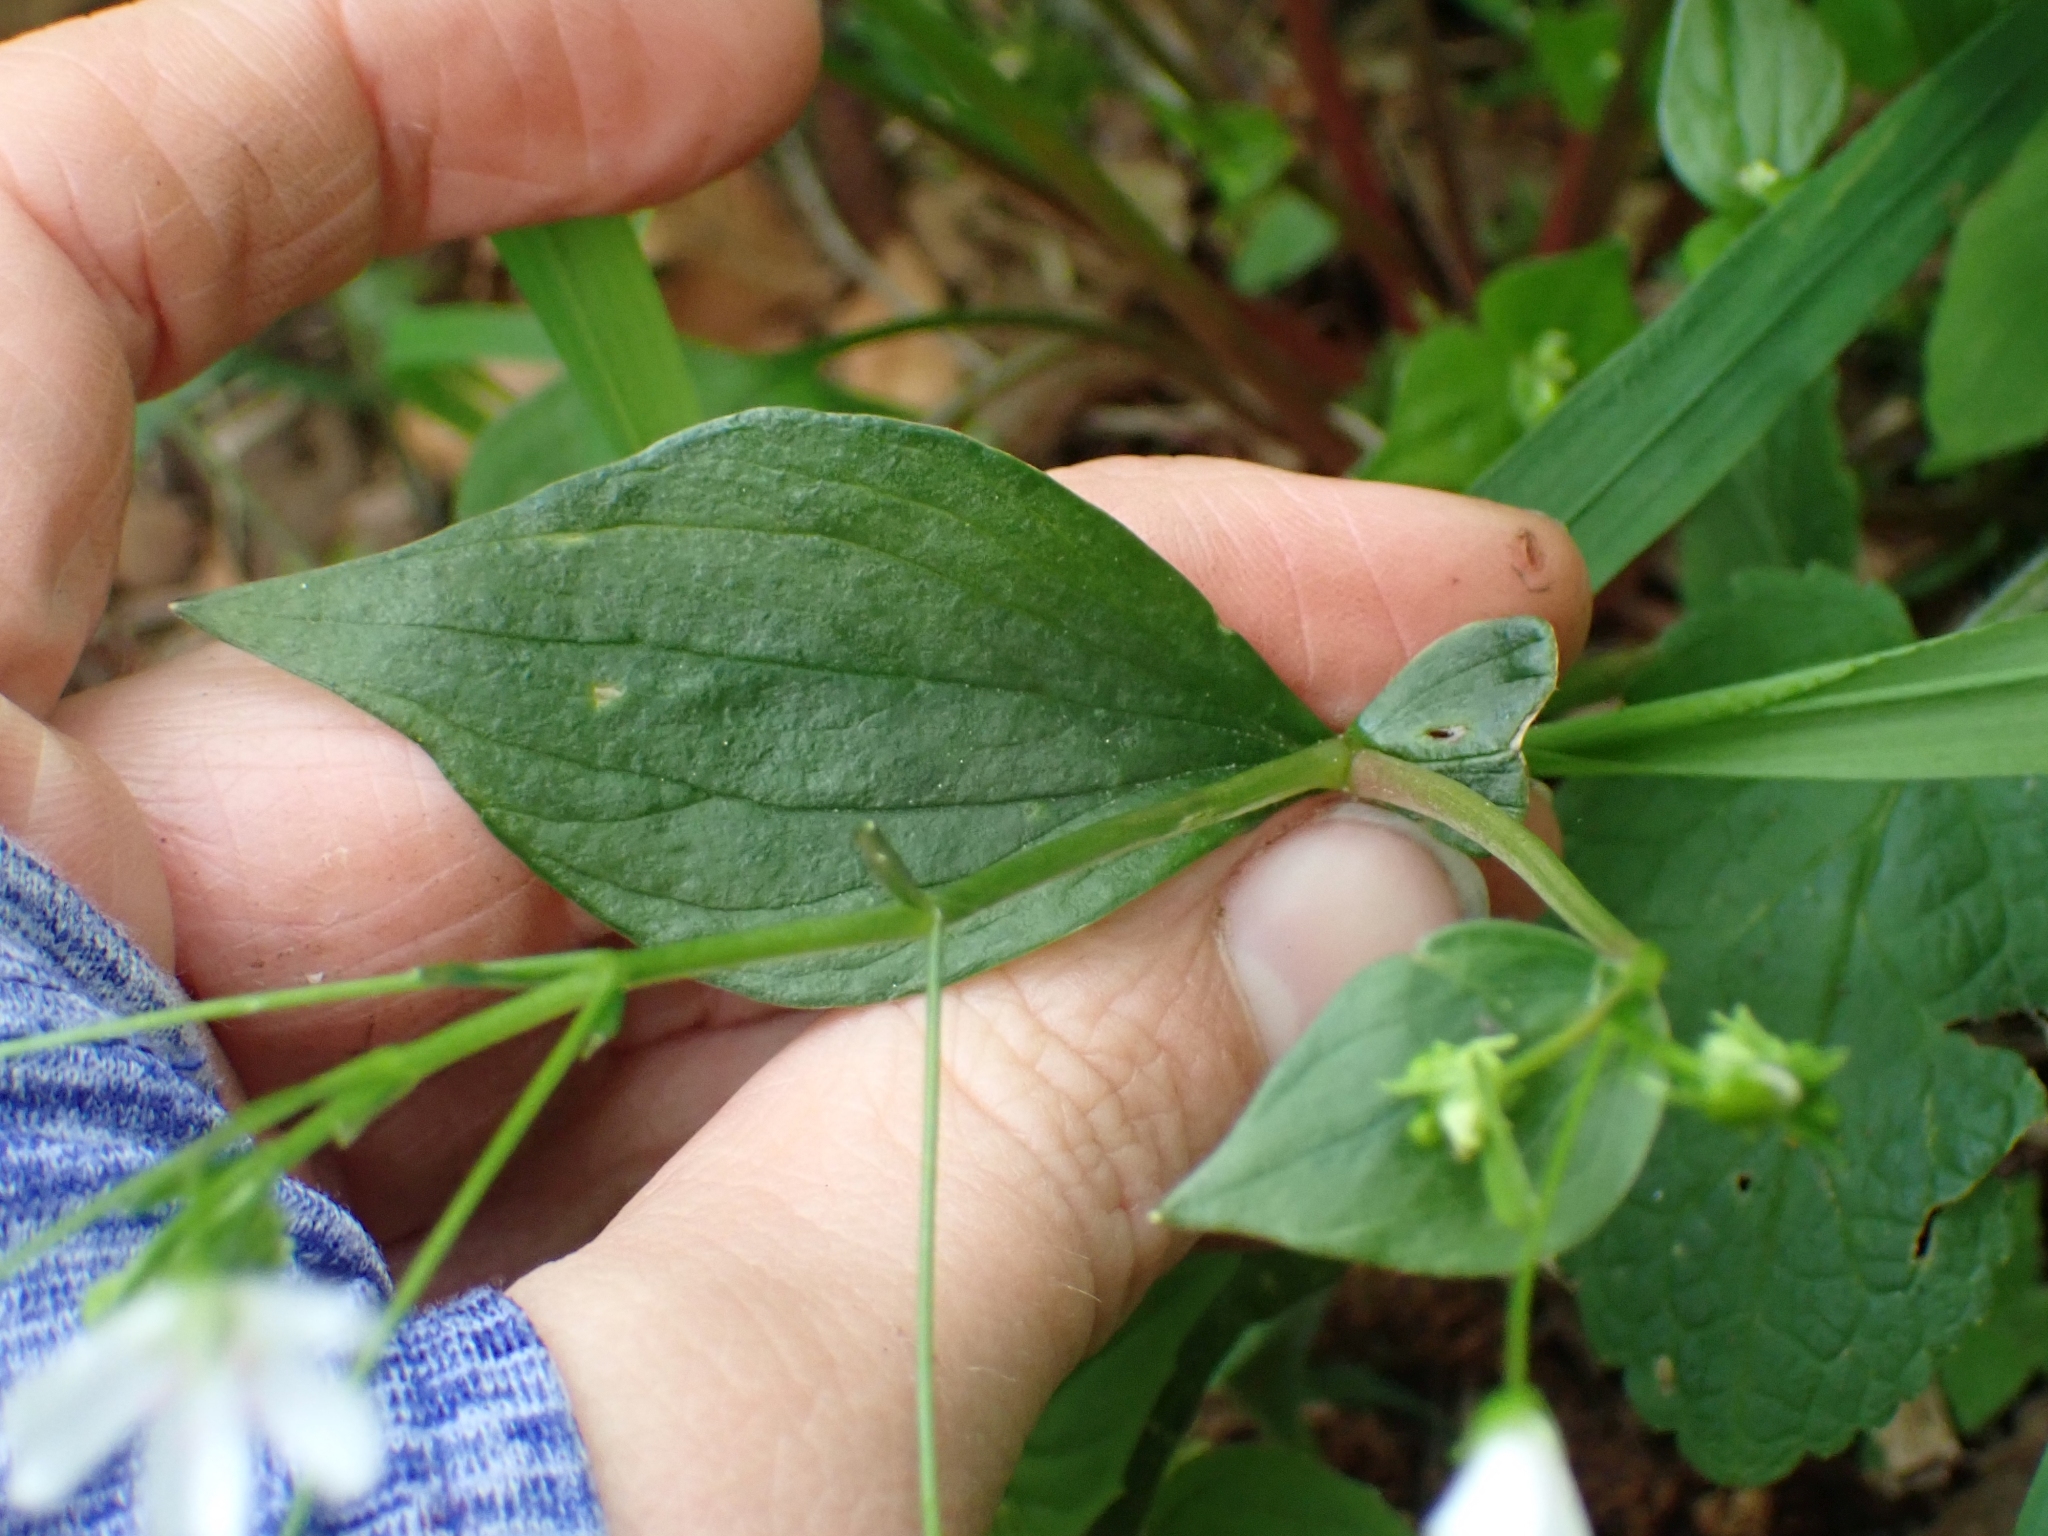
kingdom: Plantae
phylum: Tracheophyta
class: Magnoliopsida
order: Caryophyllales
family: Montiaceae
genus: Claytonia
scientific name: Claytonia sibirica
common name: Pink purslane
